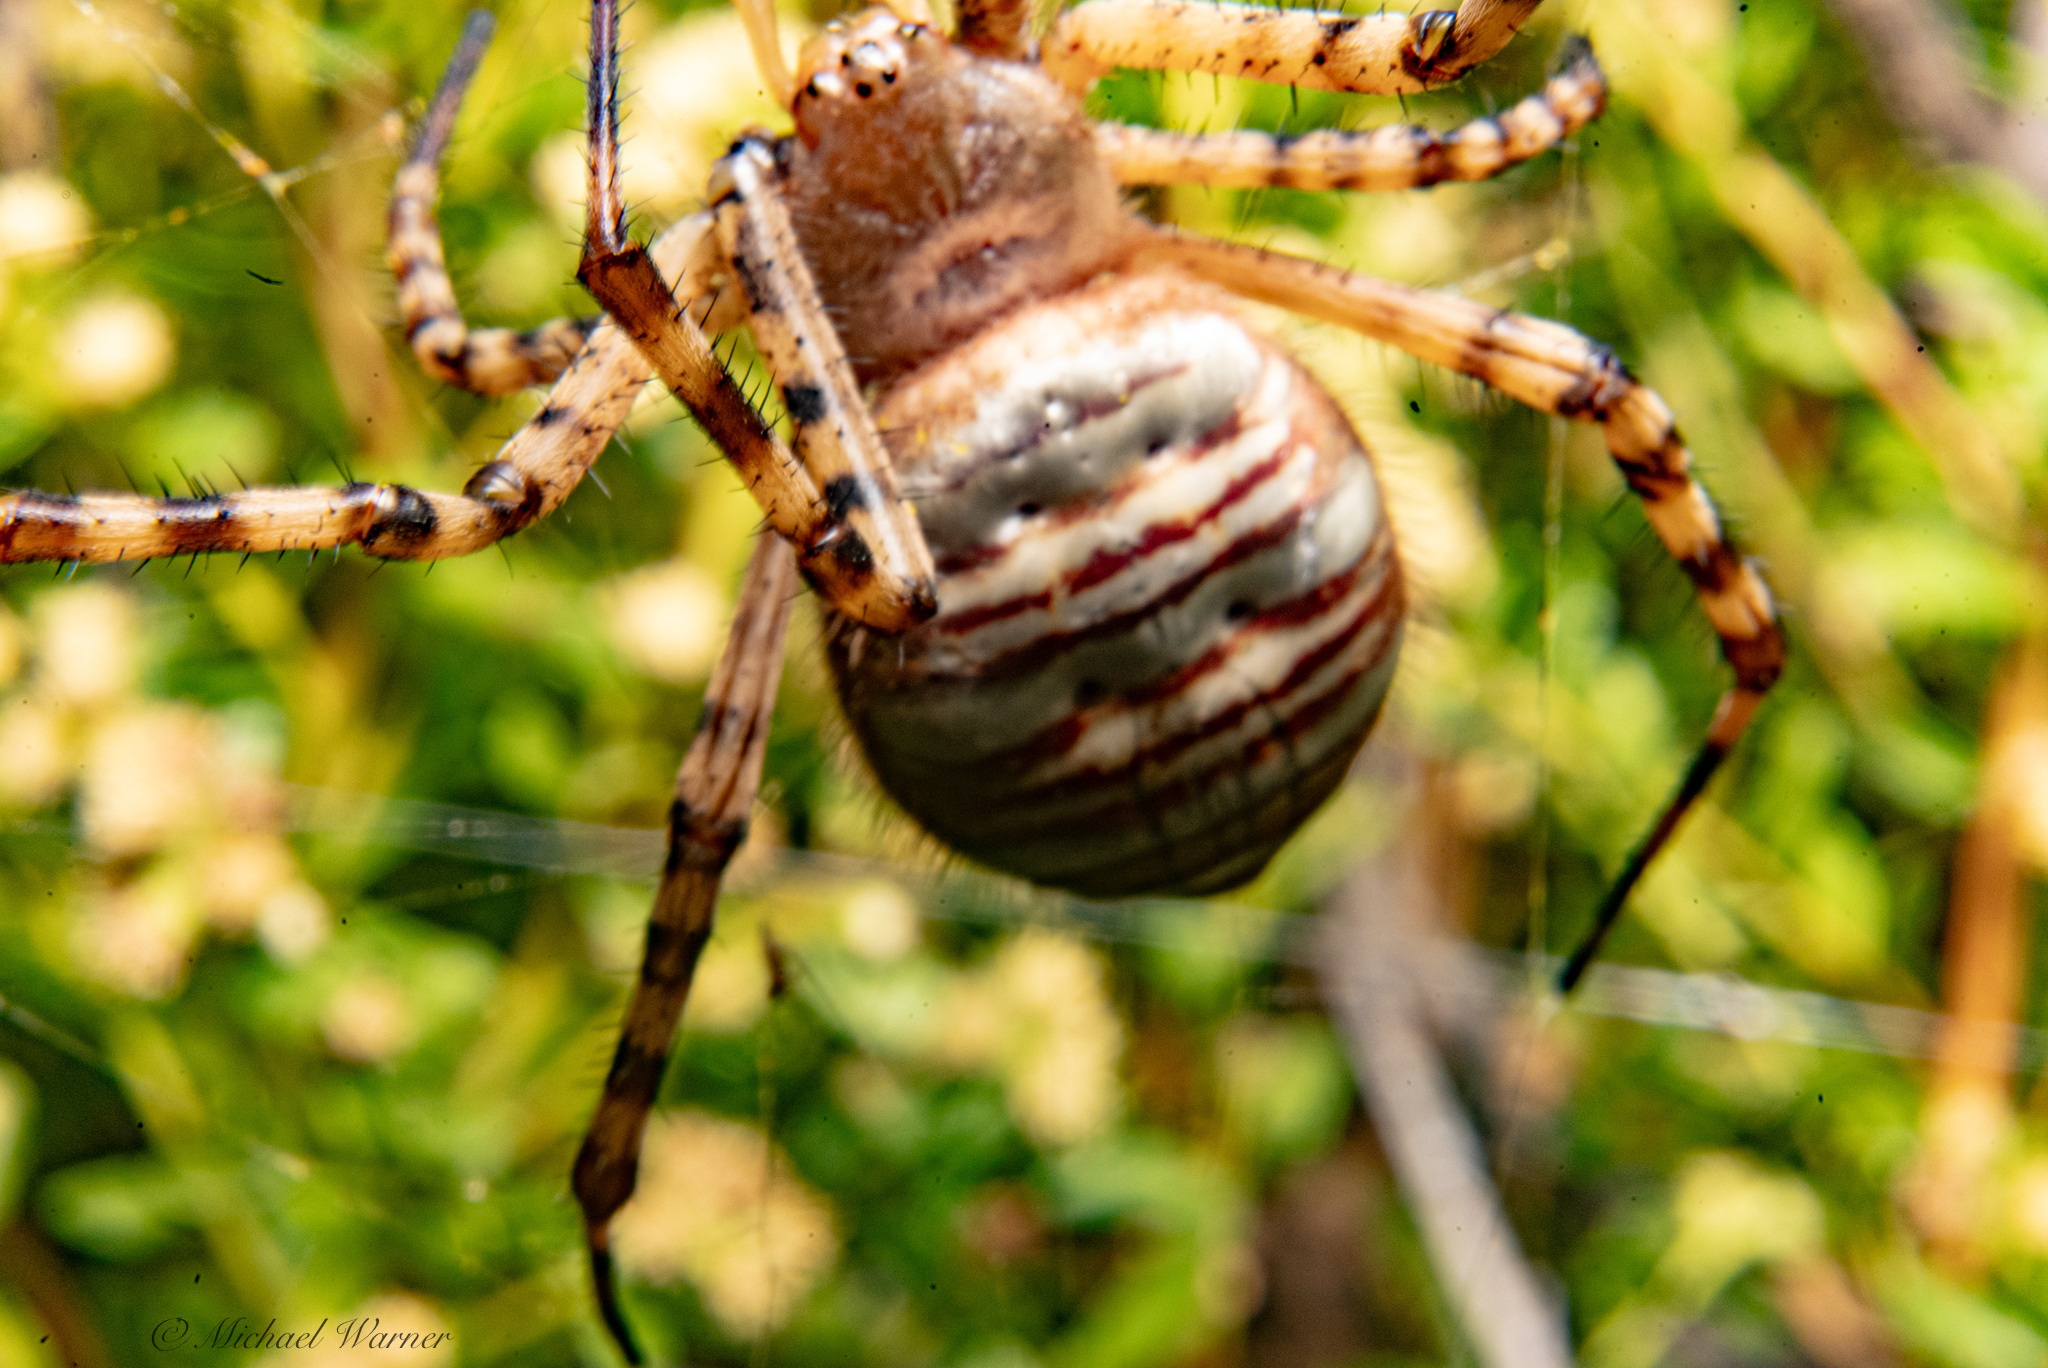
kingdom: Animalia
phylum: Arthropoda
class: Arachnida
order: Araneae
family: Araneidae
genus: Argiope
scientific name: Argiope trifasciata
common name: Banded garden spider
